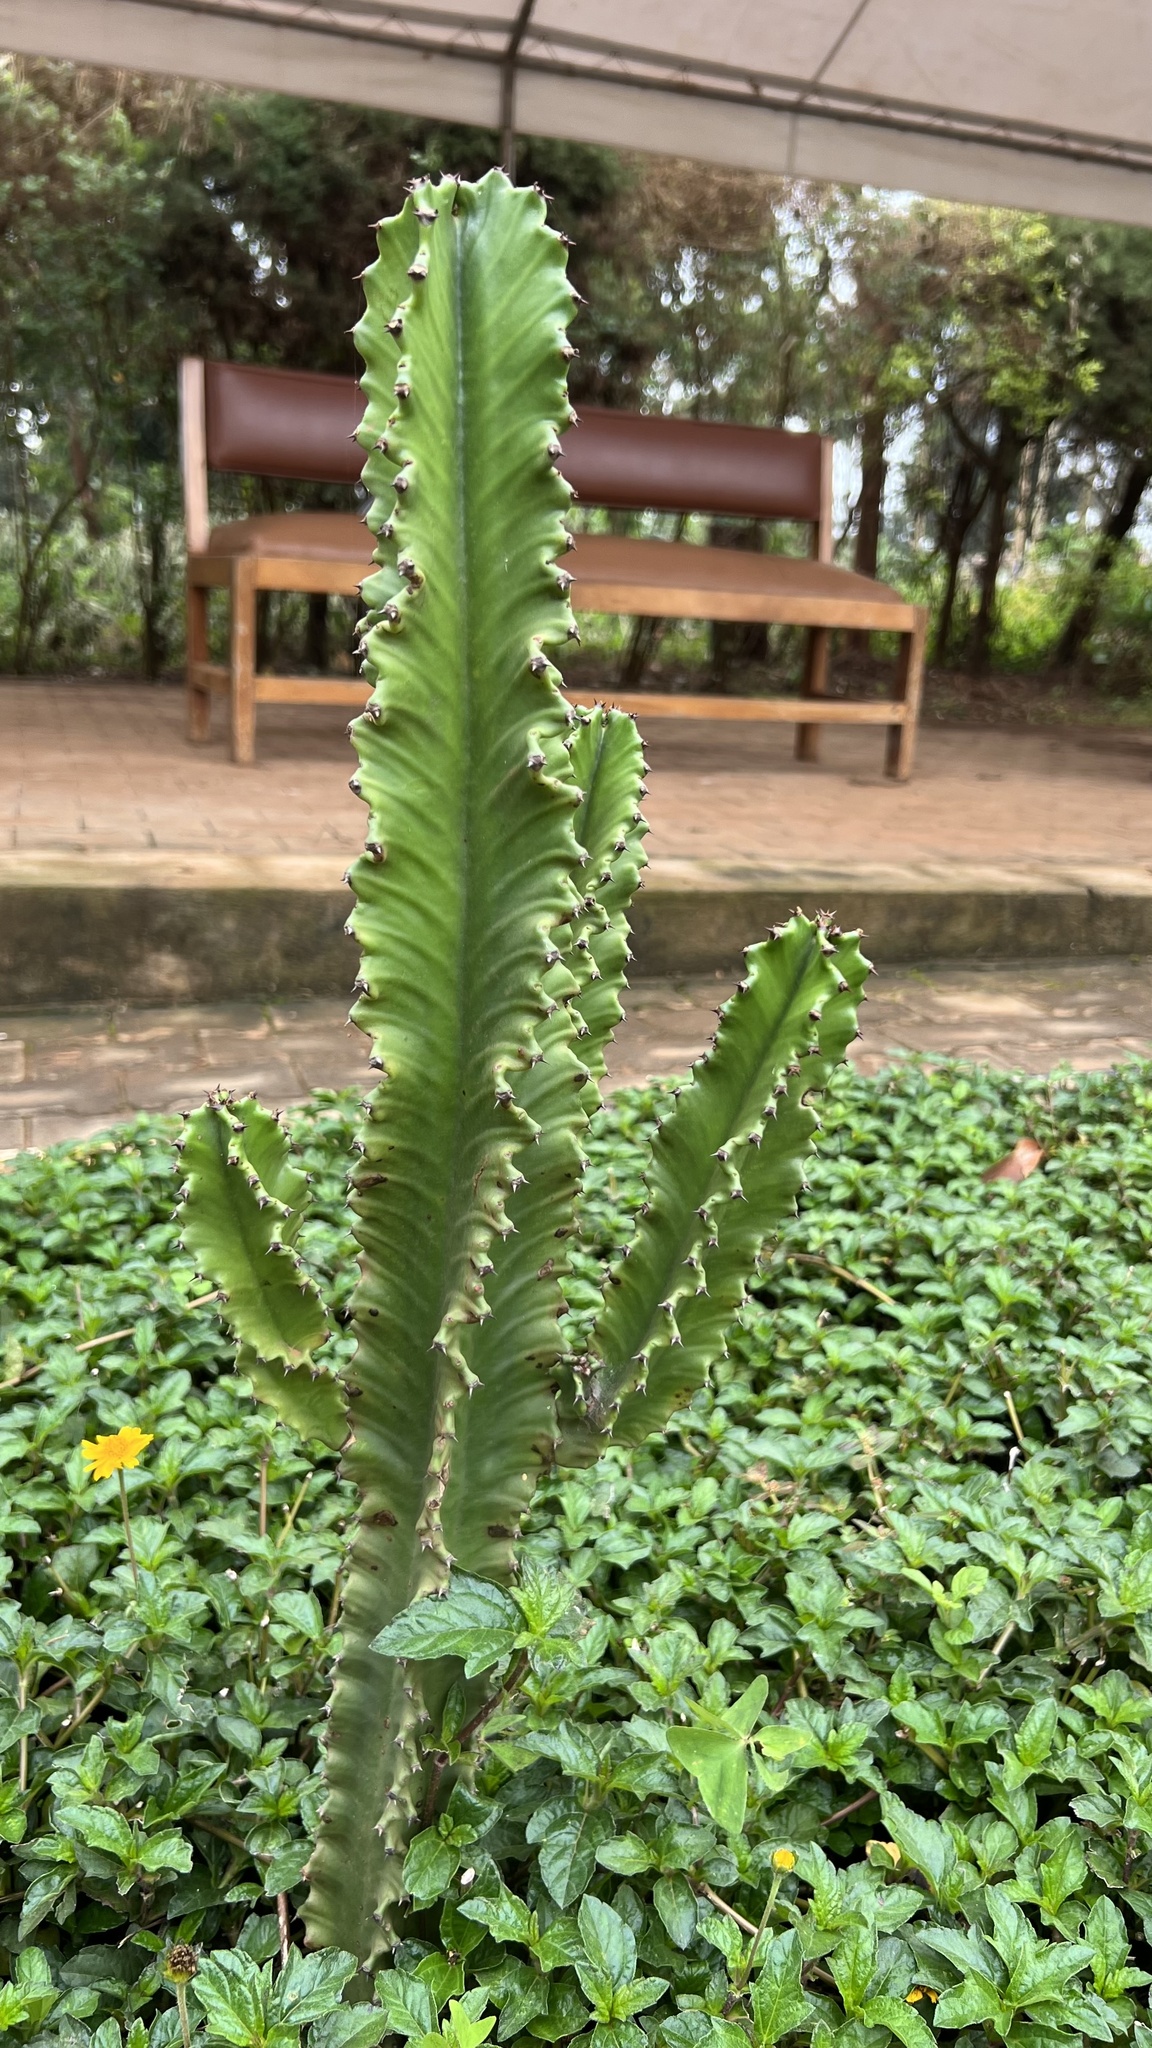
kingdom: Plantae
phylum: Tracheophyta
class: Magnoliopsida
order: Malpighiales
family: Euphorbiaceae
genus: Euphorbia
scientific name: Euphorbia ingens
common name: Cactus spurge
